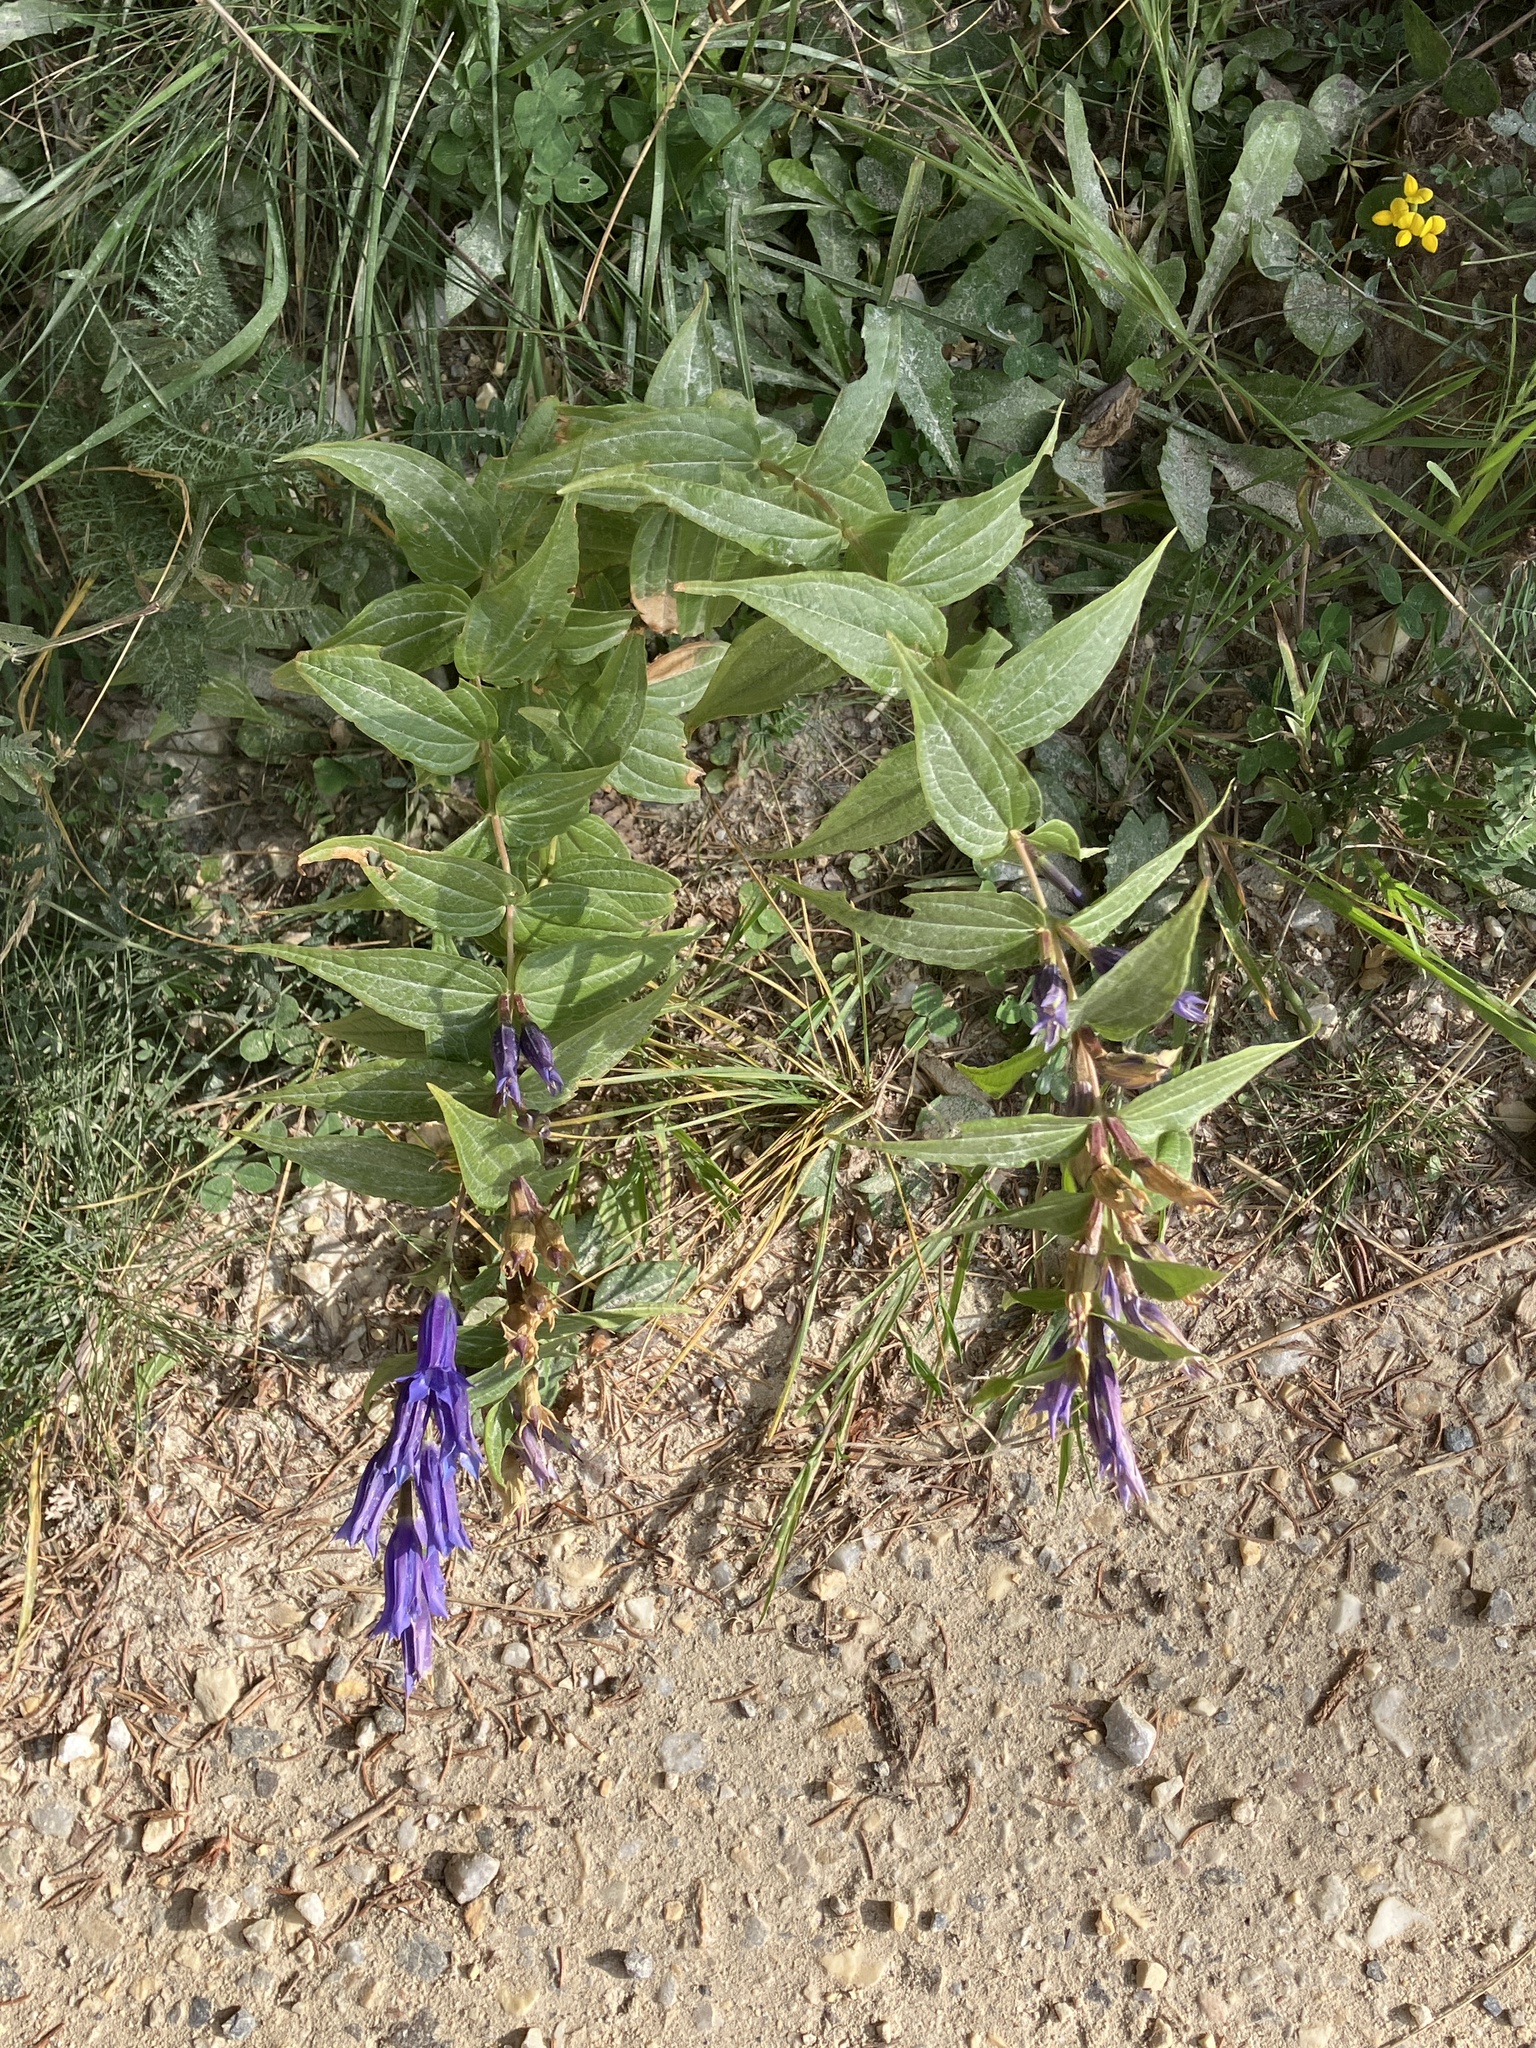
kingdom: Plantae
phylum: Tracheophyta
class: Magnoliopsida
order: Gentianales
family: Gentianaceae
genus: Gentiana
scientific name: Gentiana asclepiadea
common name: Willow gentian
